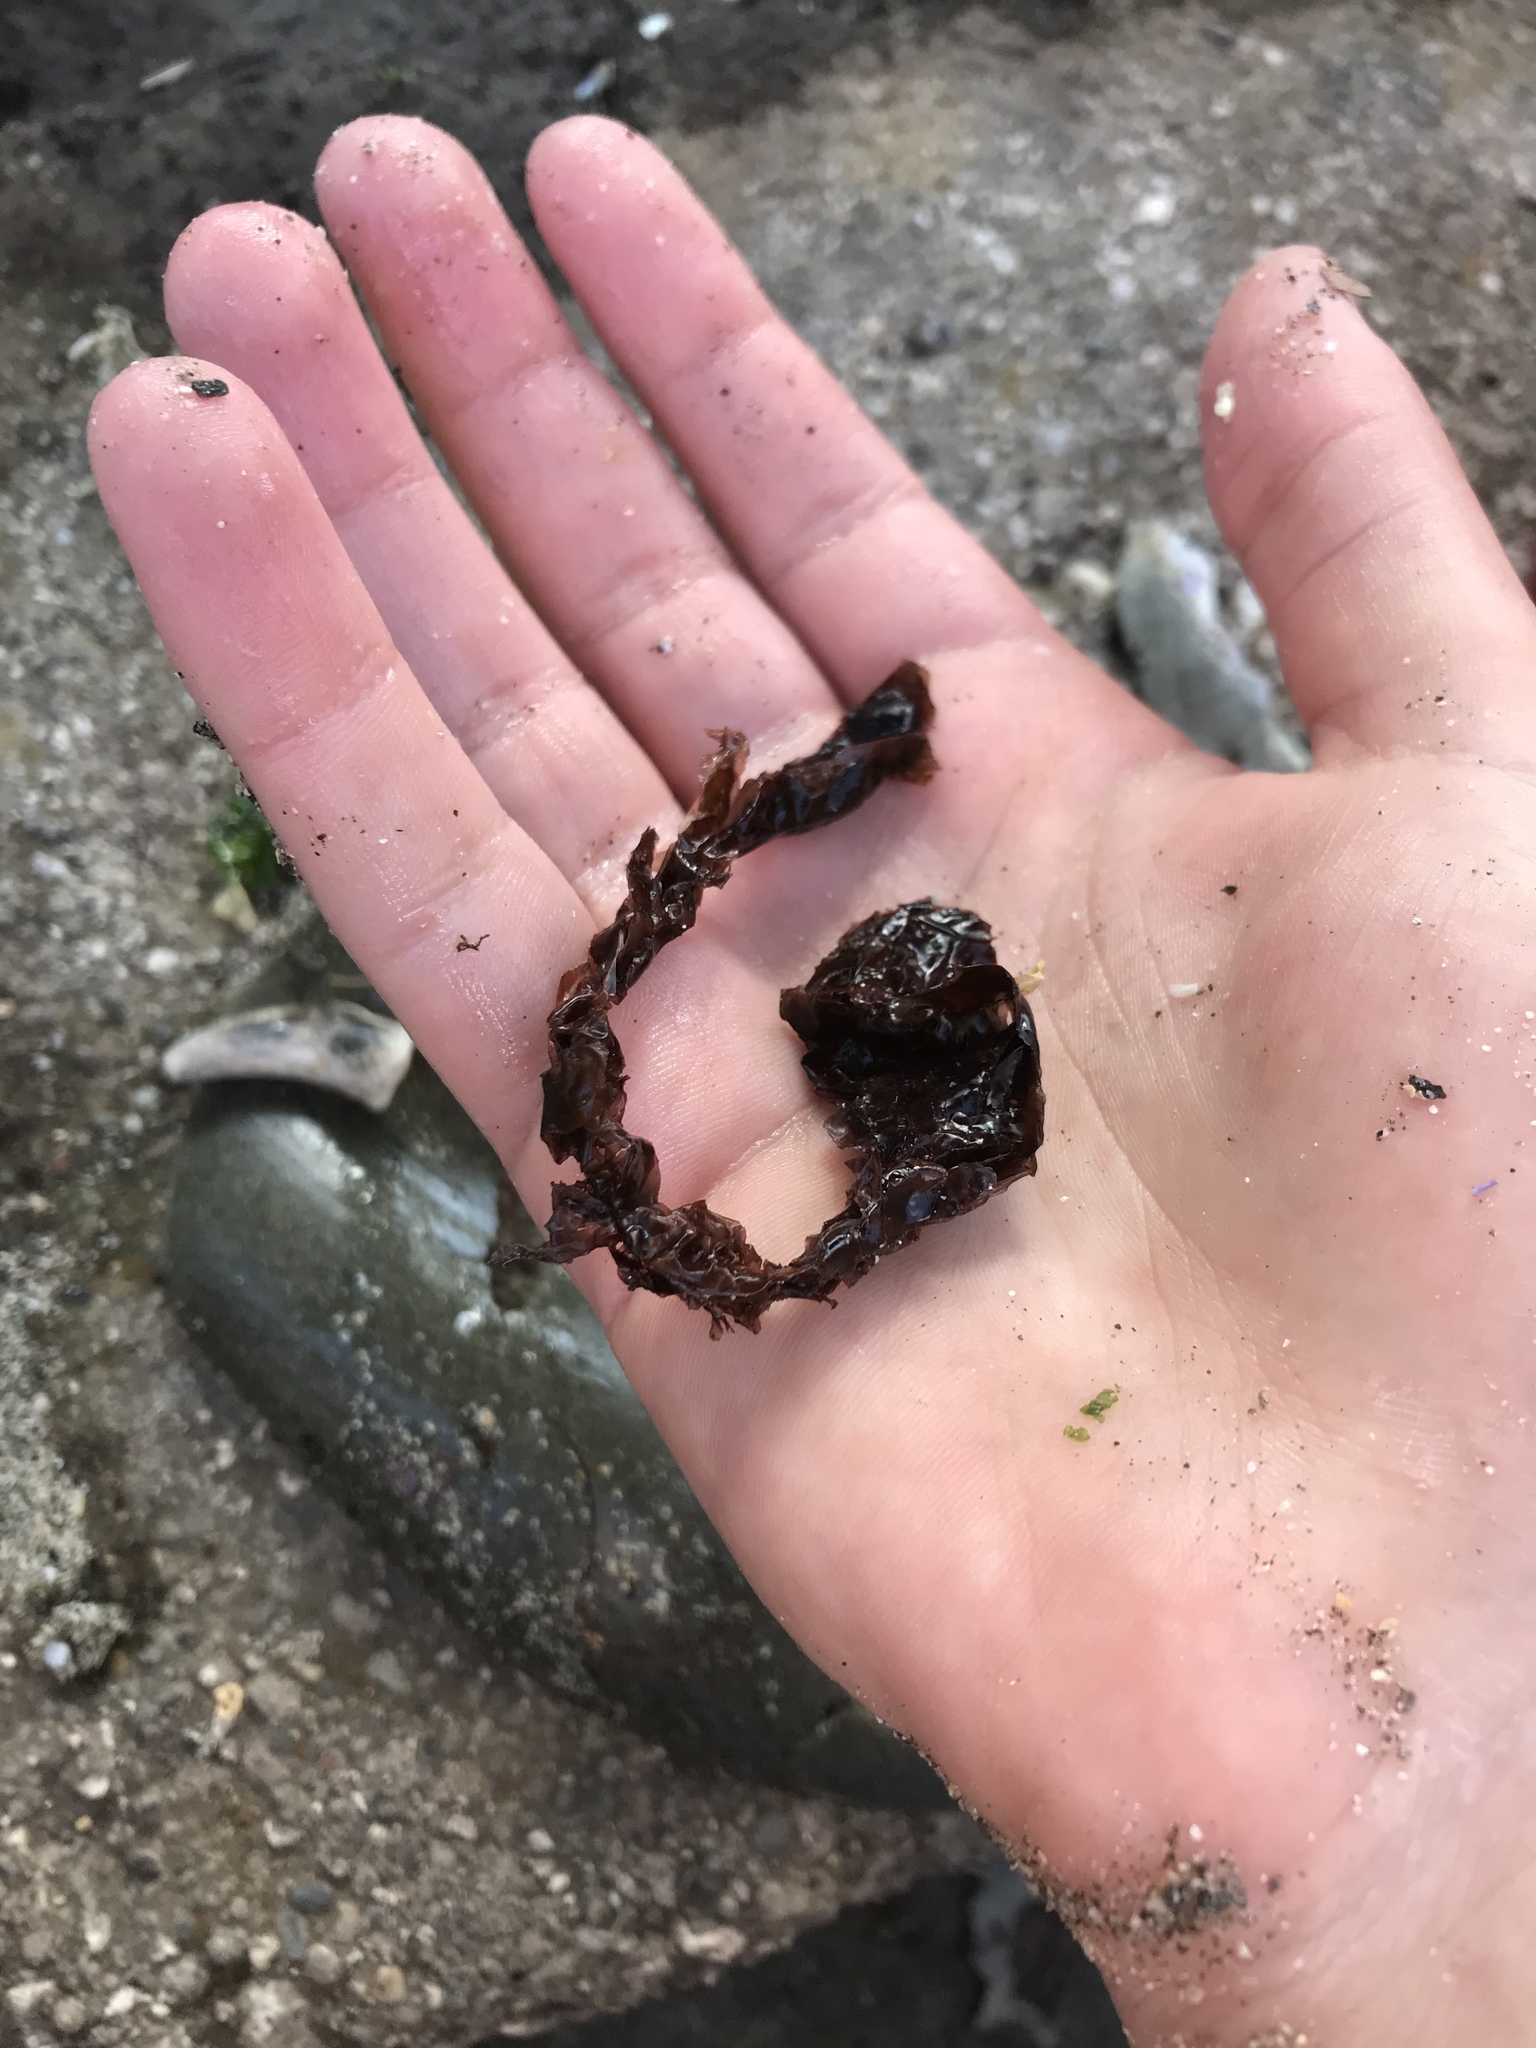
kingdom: Plantae
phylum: Rhodophyta
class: Compsopogonophyceae
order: Erythropeltidales
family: Erythrotrichiaceae
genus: Smithora
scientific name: Smithora naiadum
